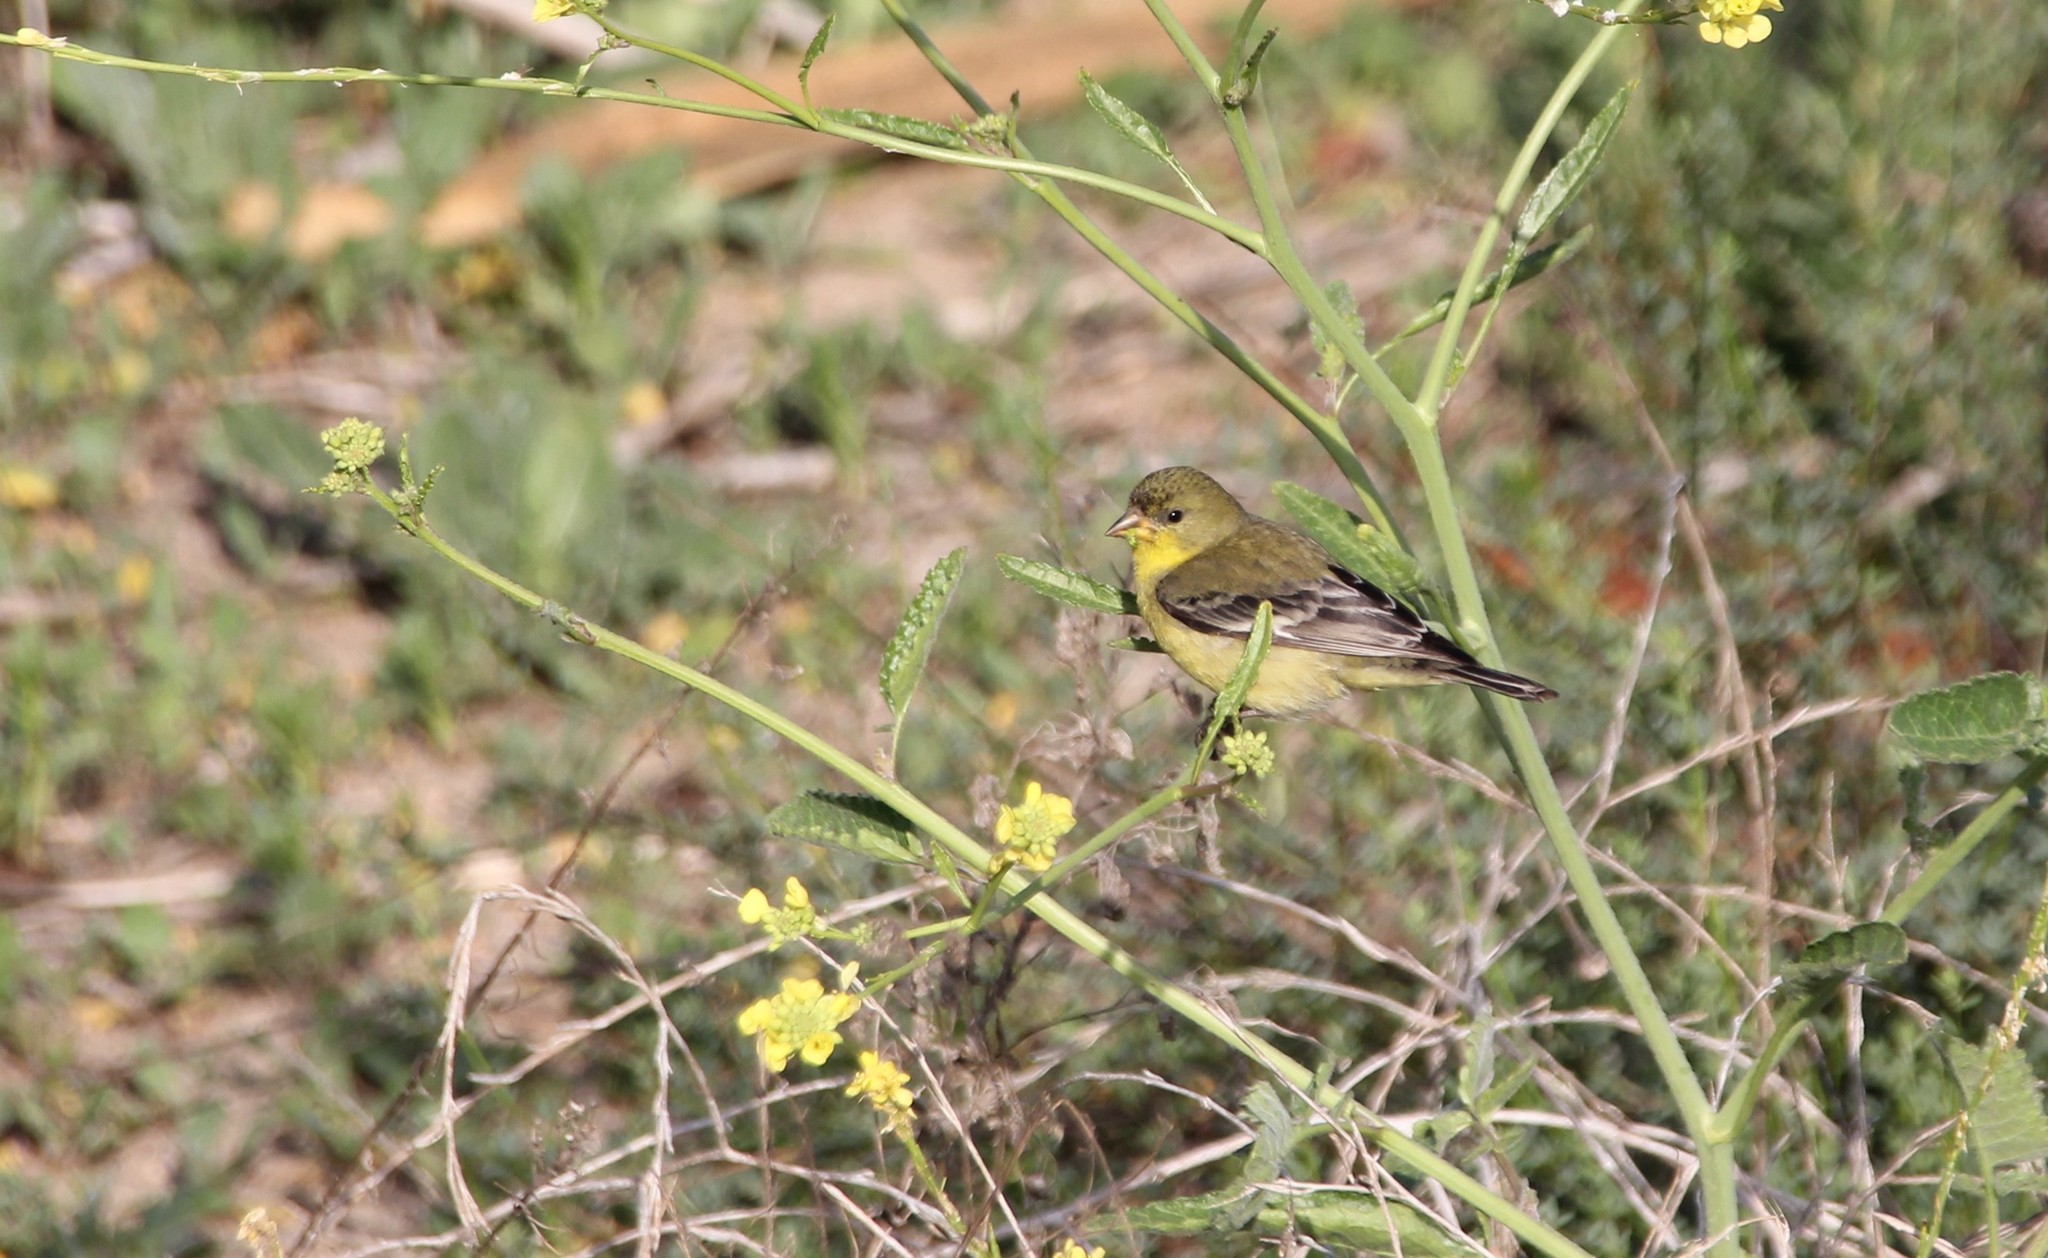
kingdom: Animalia
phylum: Chordata
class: Aves
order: Passeriformes
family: Fringillidae
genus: Spinus
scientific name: Spinus psaltria
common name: Lesser goldfinch
